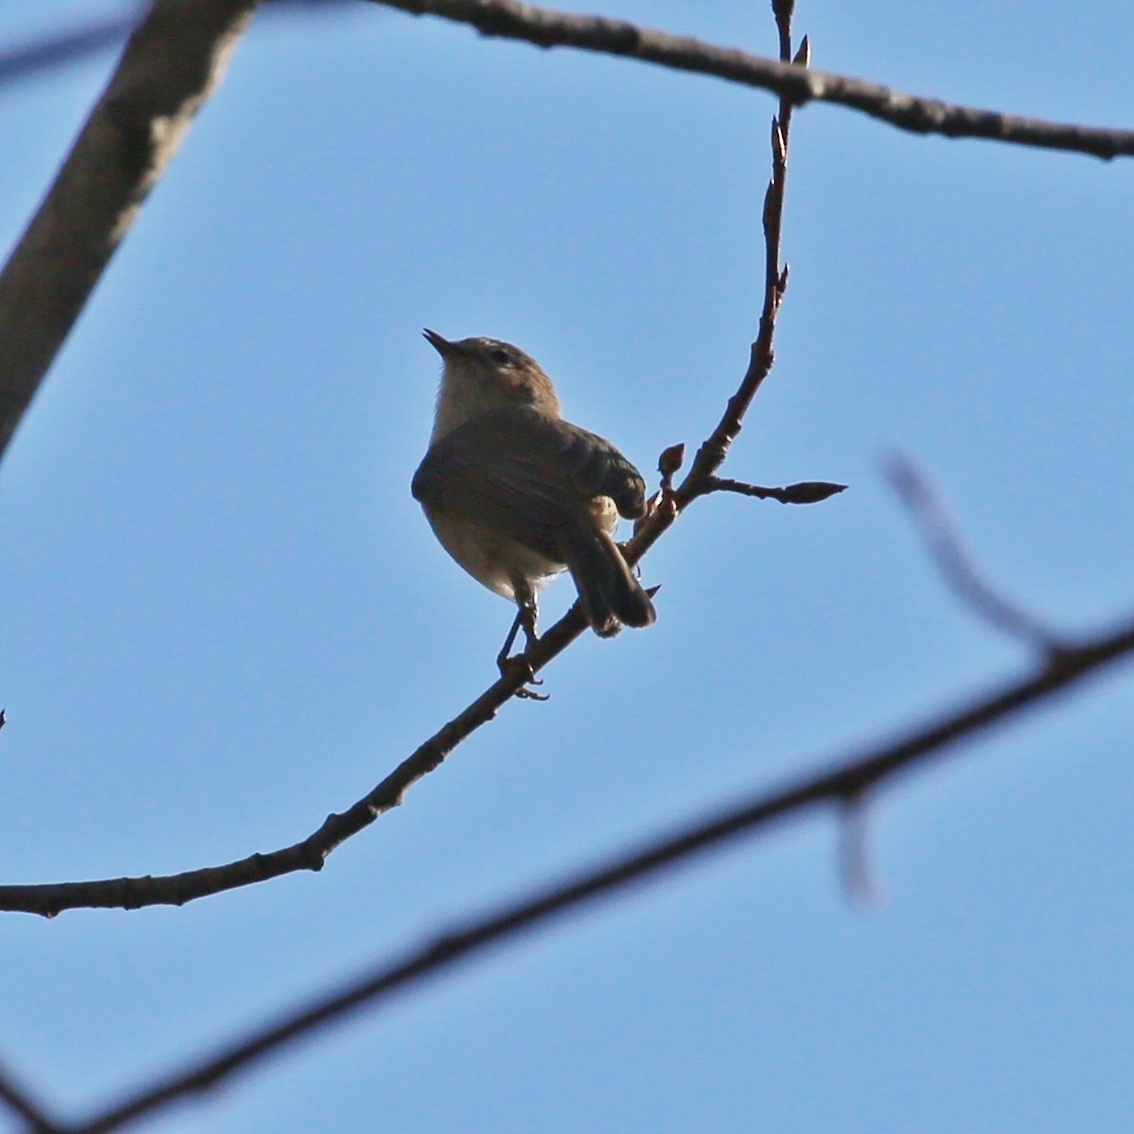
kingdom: Animalia
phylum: Chordata
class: Aves
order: Passeriformes
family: Phylloscopidae
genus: Phylloscopus
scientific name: Phylloscopus collybita
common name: Common chiffchaff
